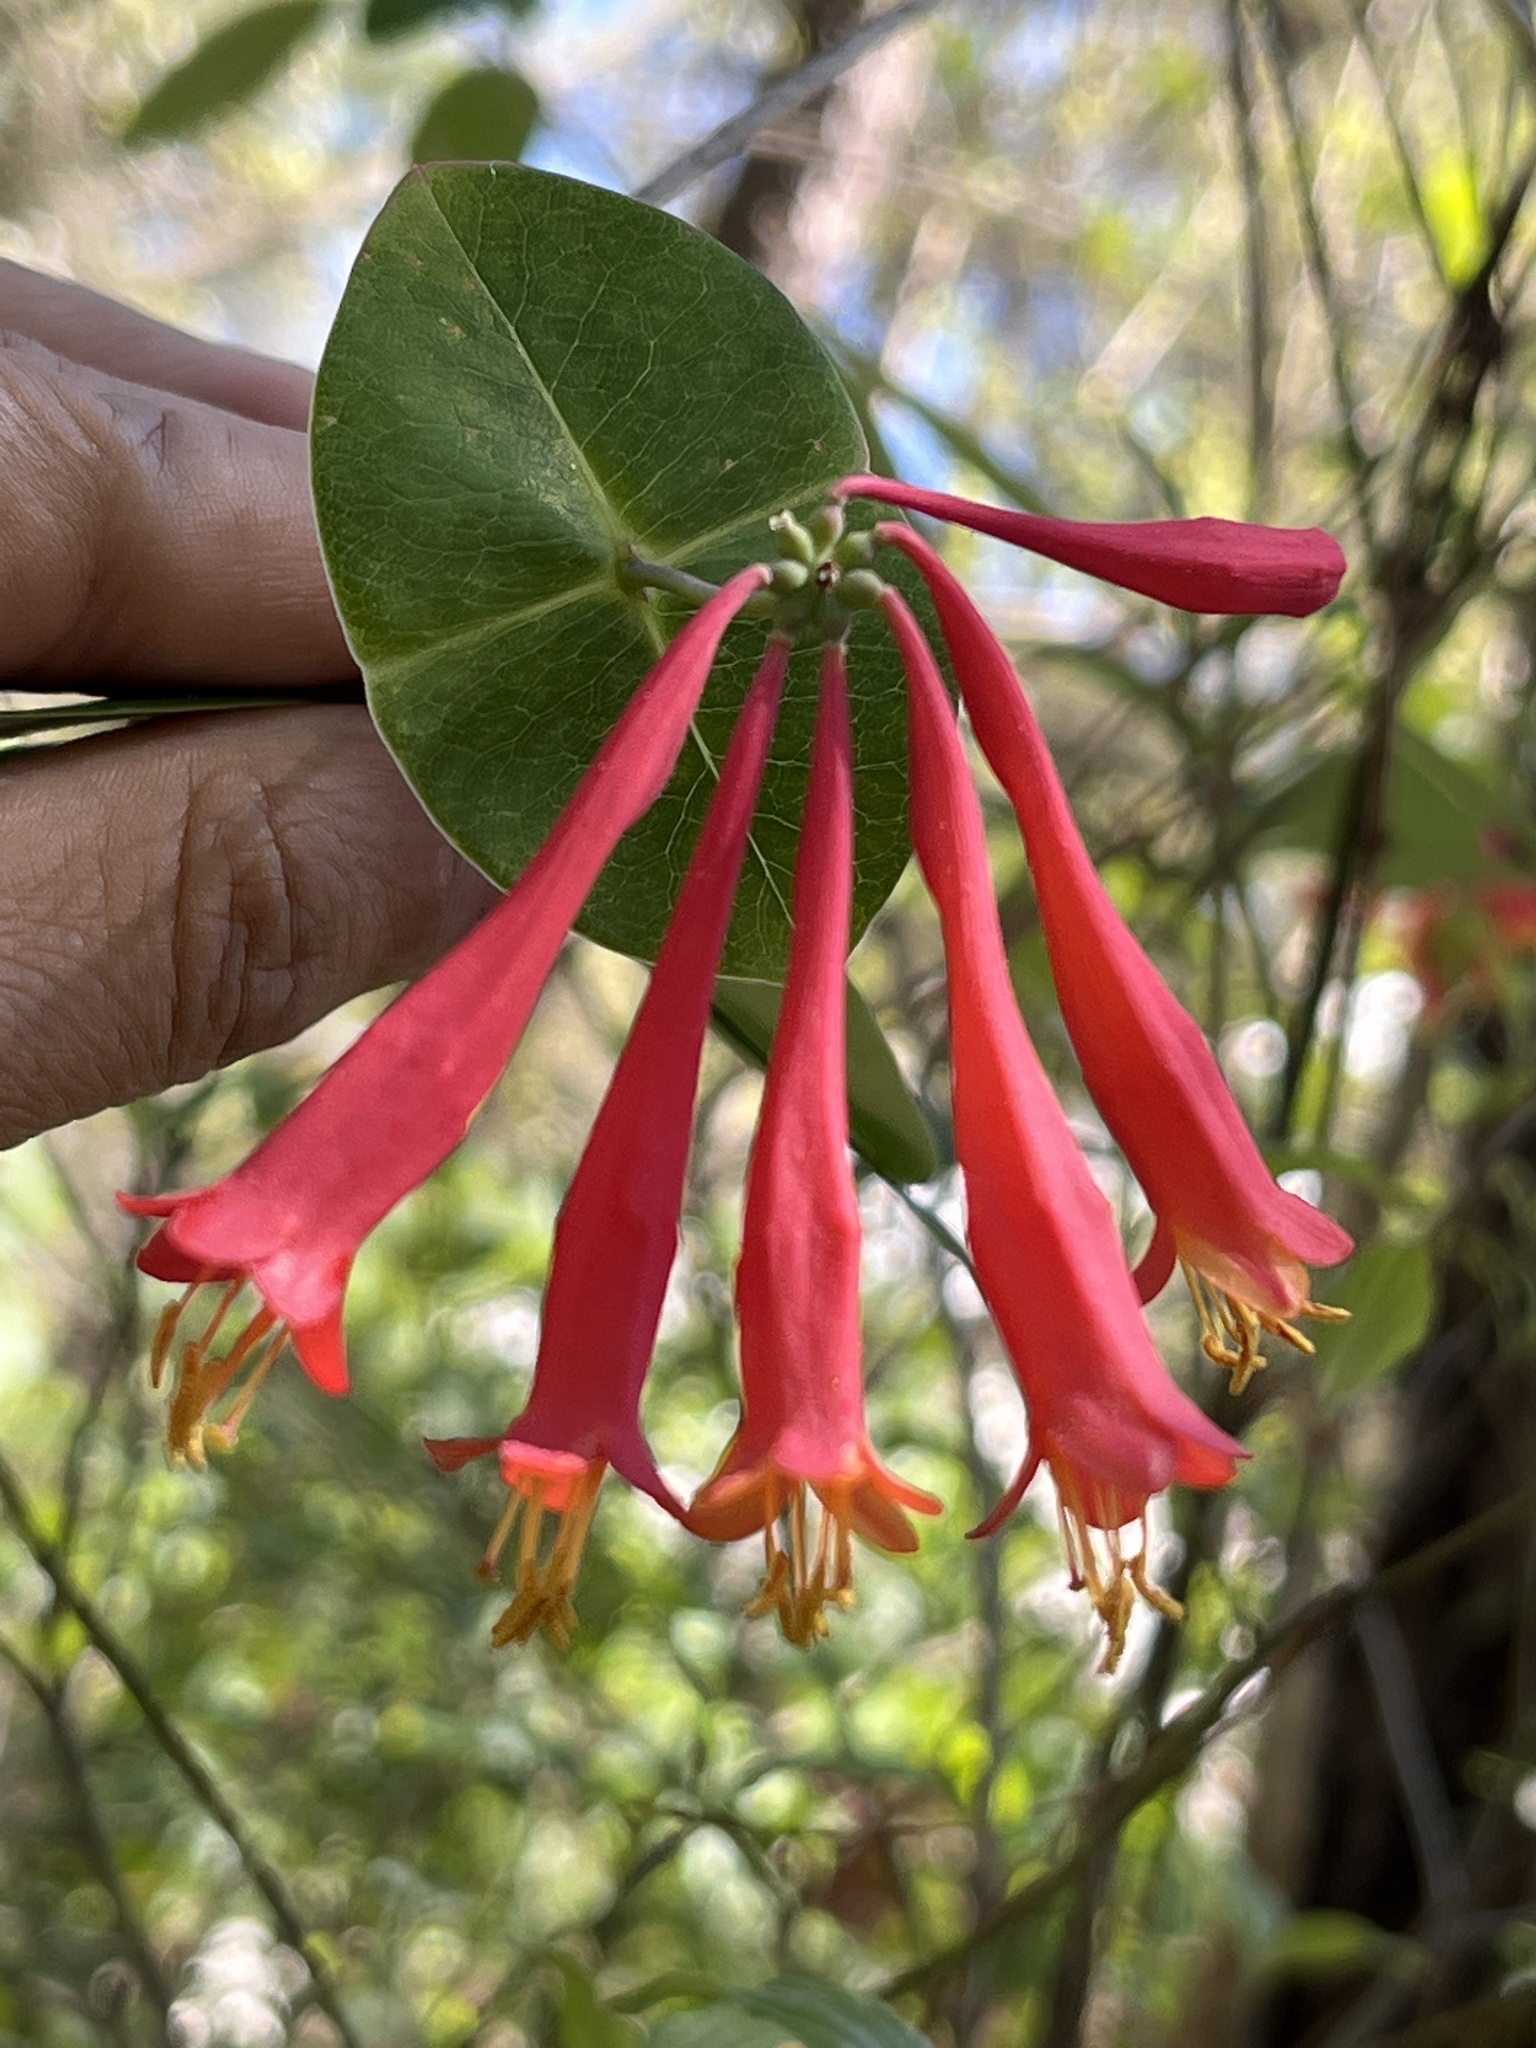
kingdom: Plantae
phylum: Tracheophyta
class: Magnoliopsida
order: Dipsacales
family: Caprifoliaceae
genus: Lonicera
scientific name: Lonicera sempervirens
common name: Coral honeysuckle
